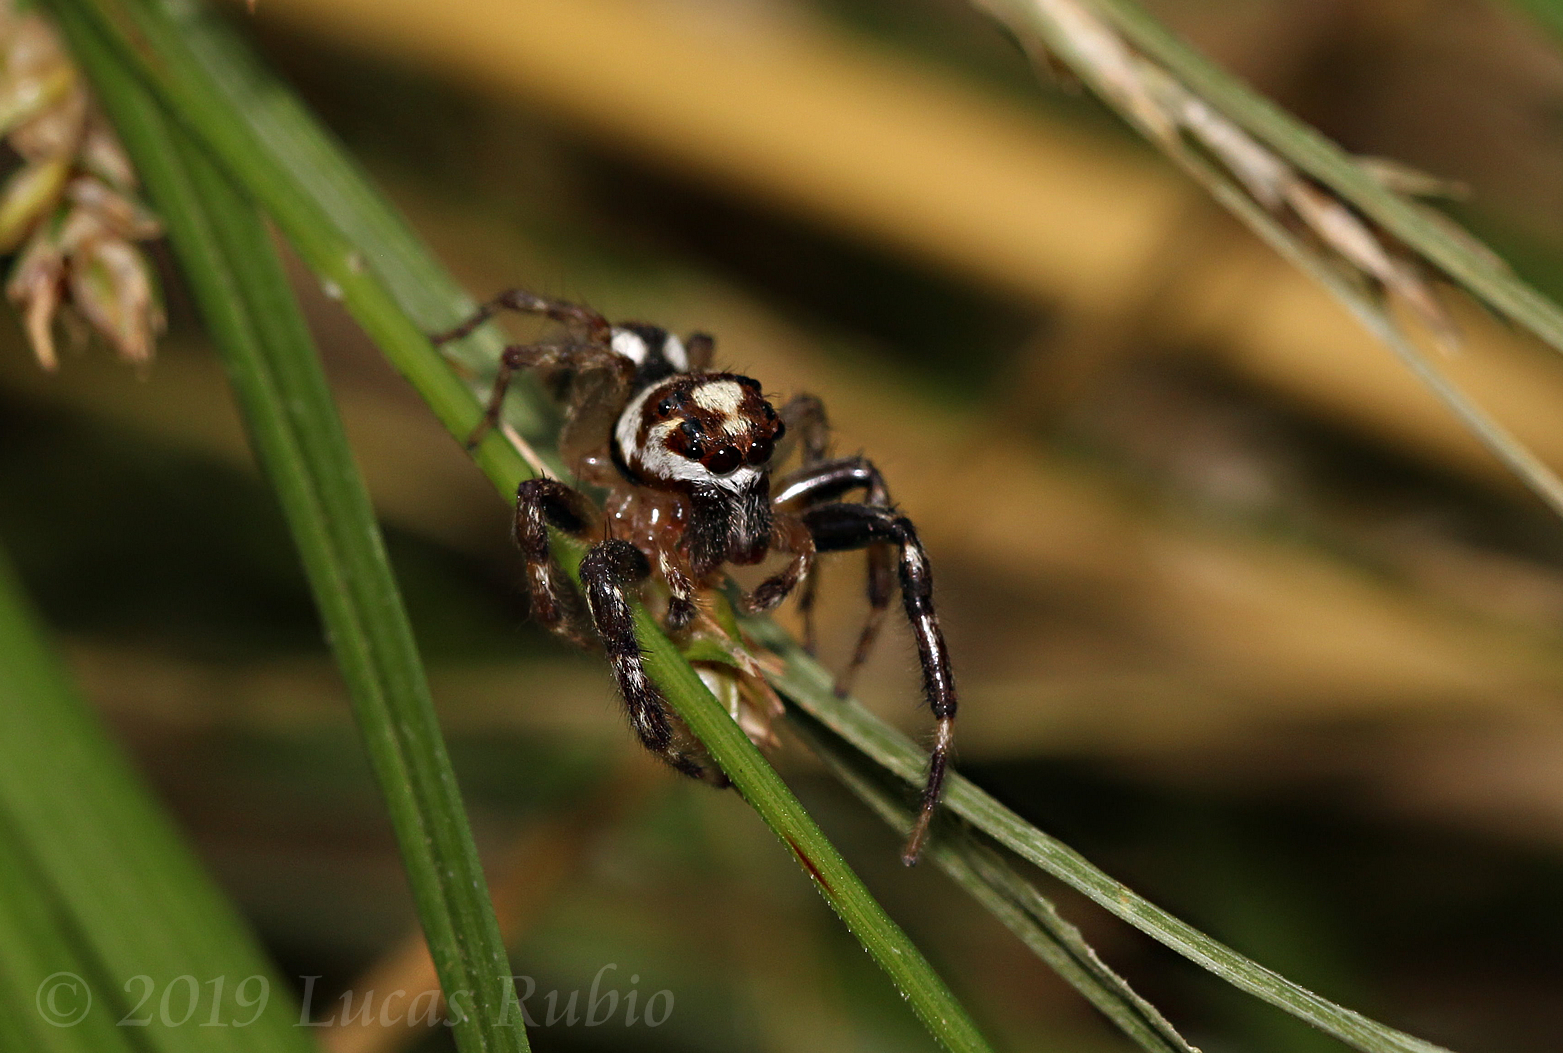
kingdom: Animalia
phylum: Arthropoda
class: Arachnida
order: Araneae
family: Salticidae
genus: Chira
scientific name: Chira gounellei
